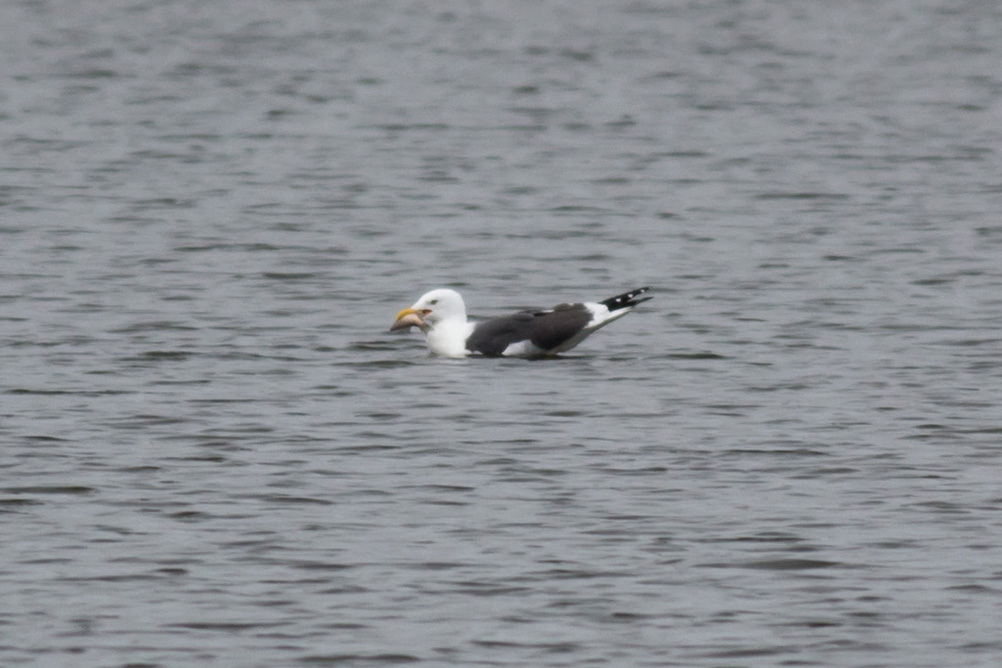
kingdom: Animalia
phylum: Chordata
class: Aves
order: Charadriiformes
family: Laridae
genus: Larus
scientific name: Larus fuscus
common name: Lesser black-backed gull
